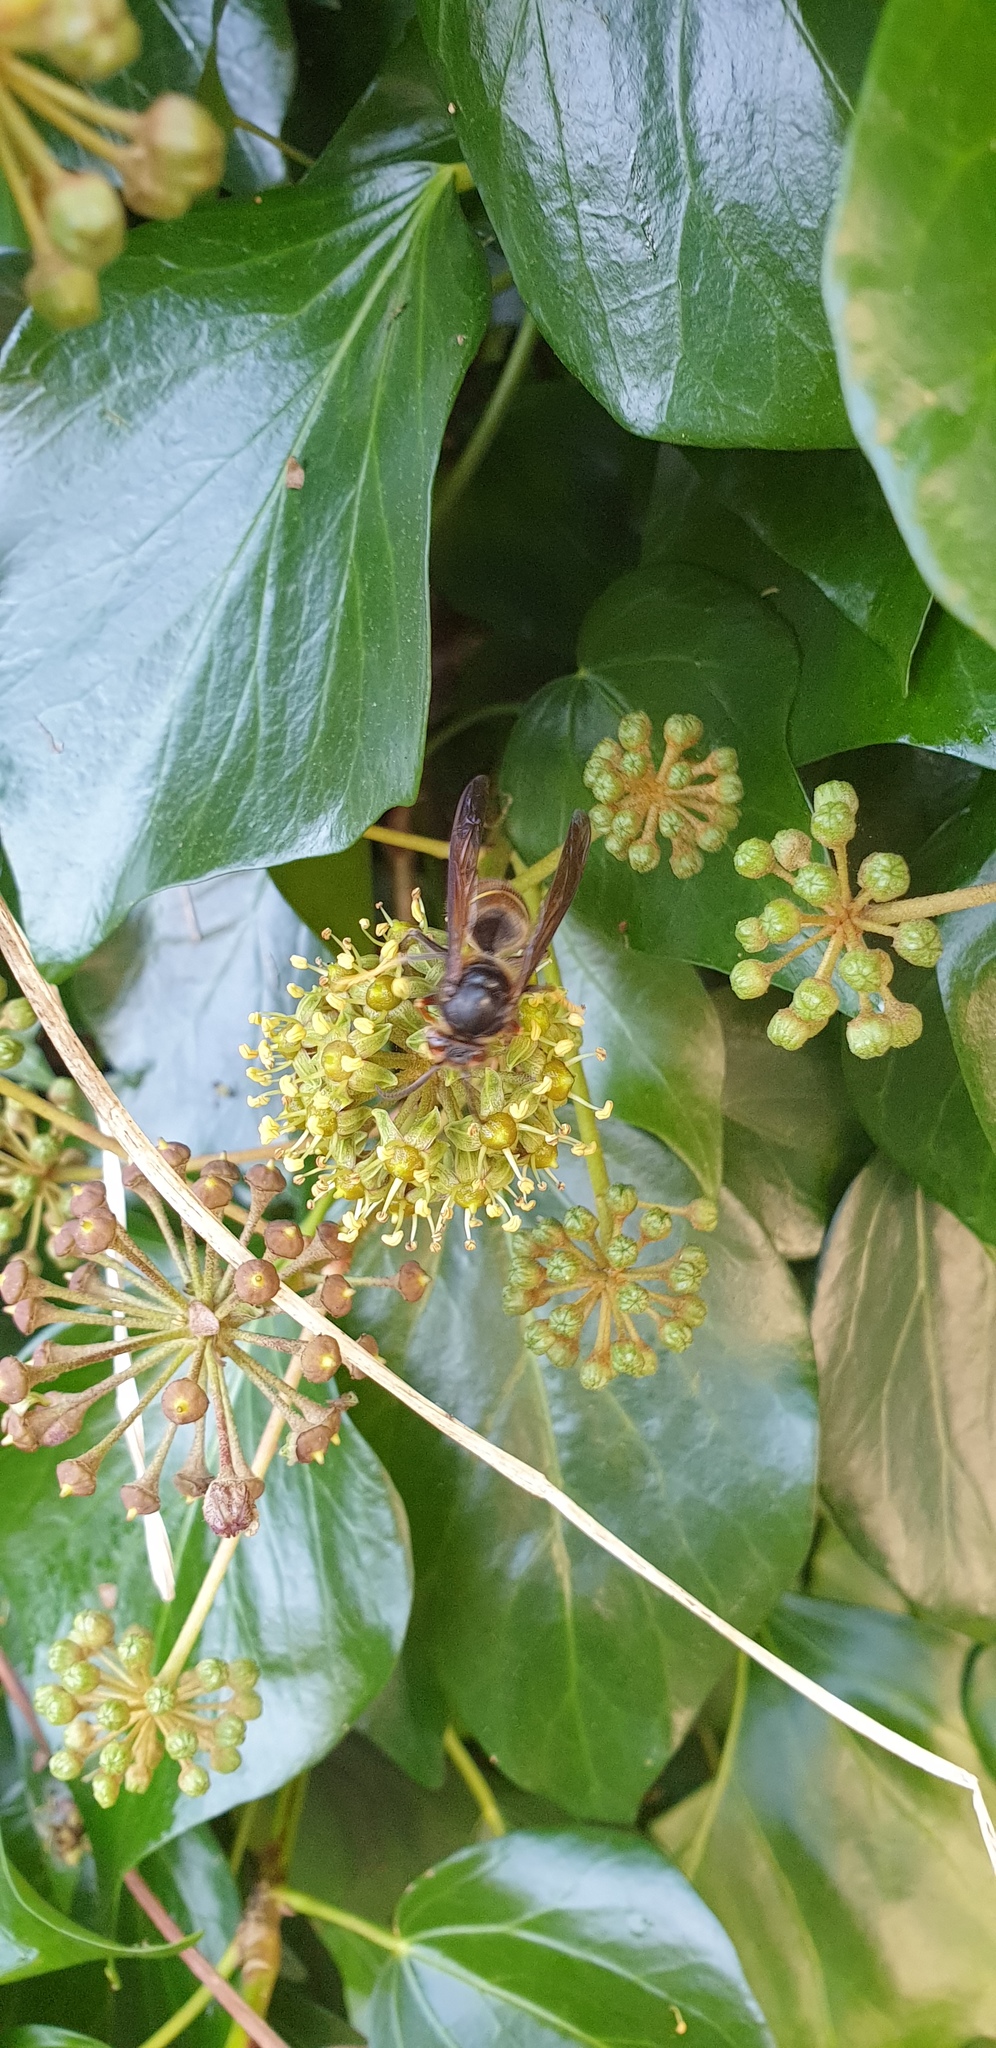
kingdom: Animalia
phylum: Arthropoda
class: Insecta
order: Hymenoptera
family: Vespidae
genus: Vespa
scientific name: Vespa velutina
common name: Asian hornet
